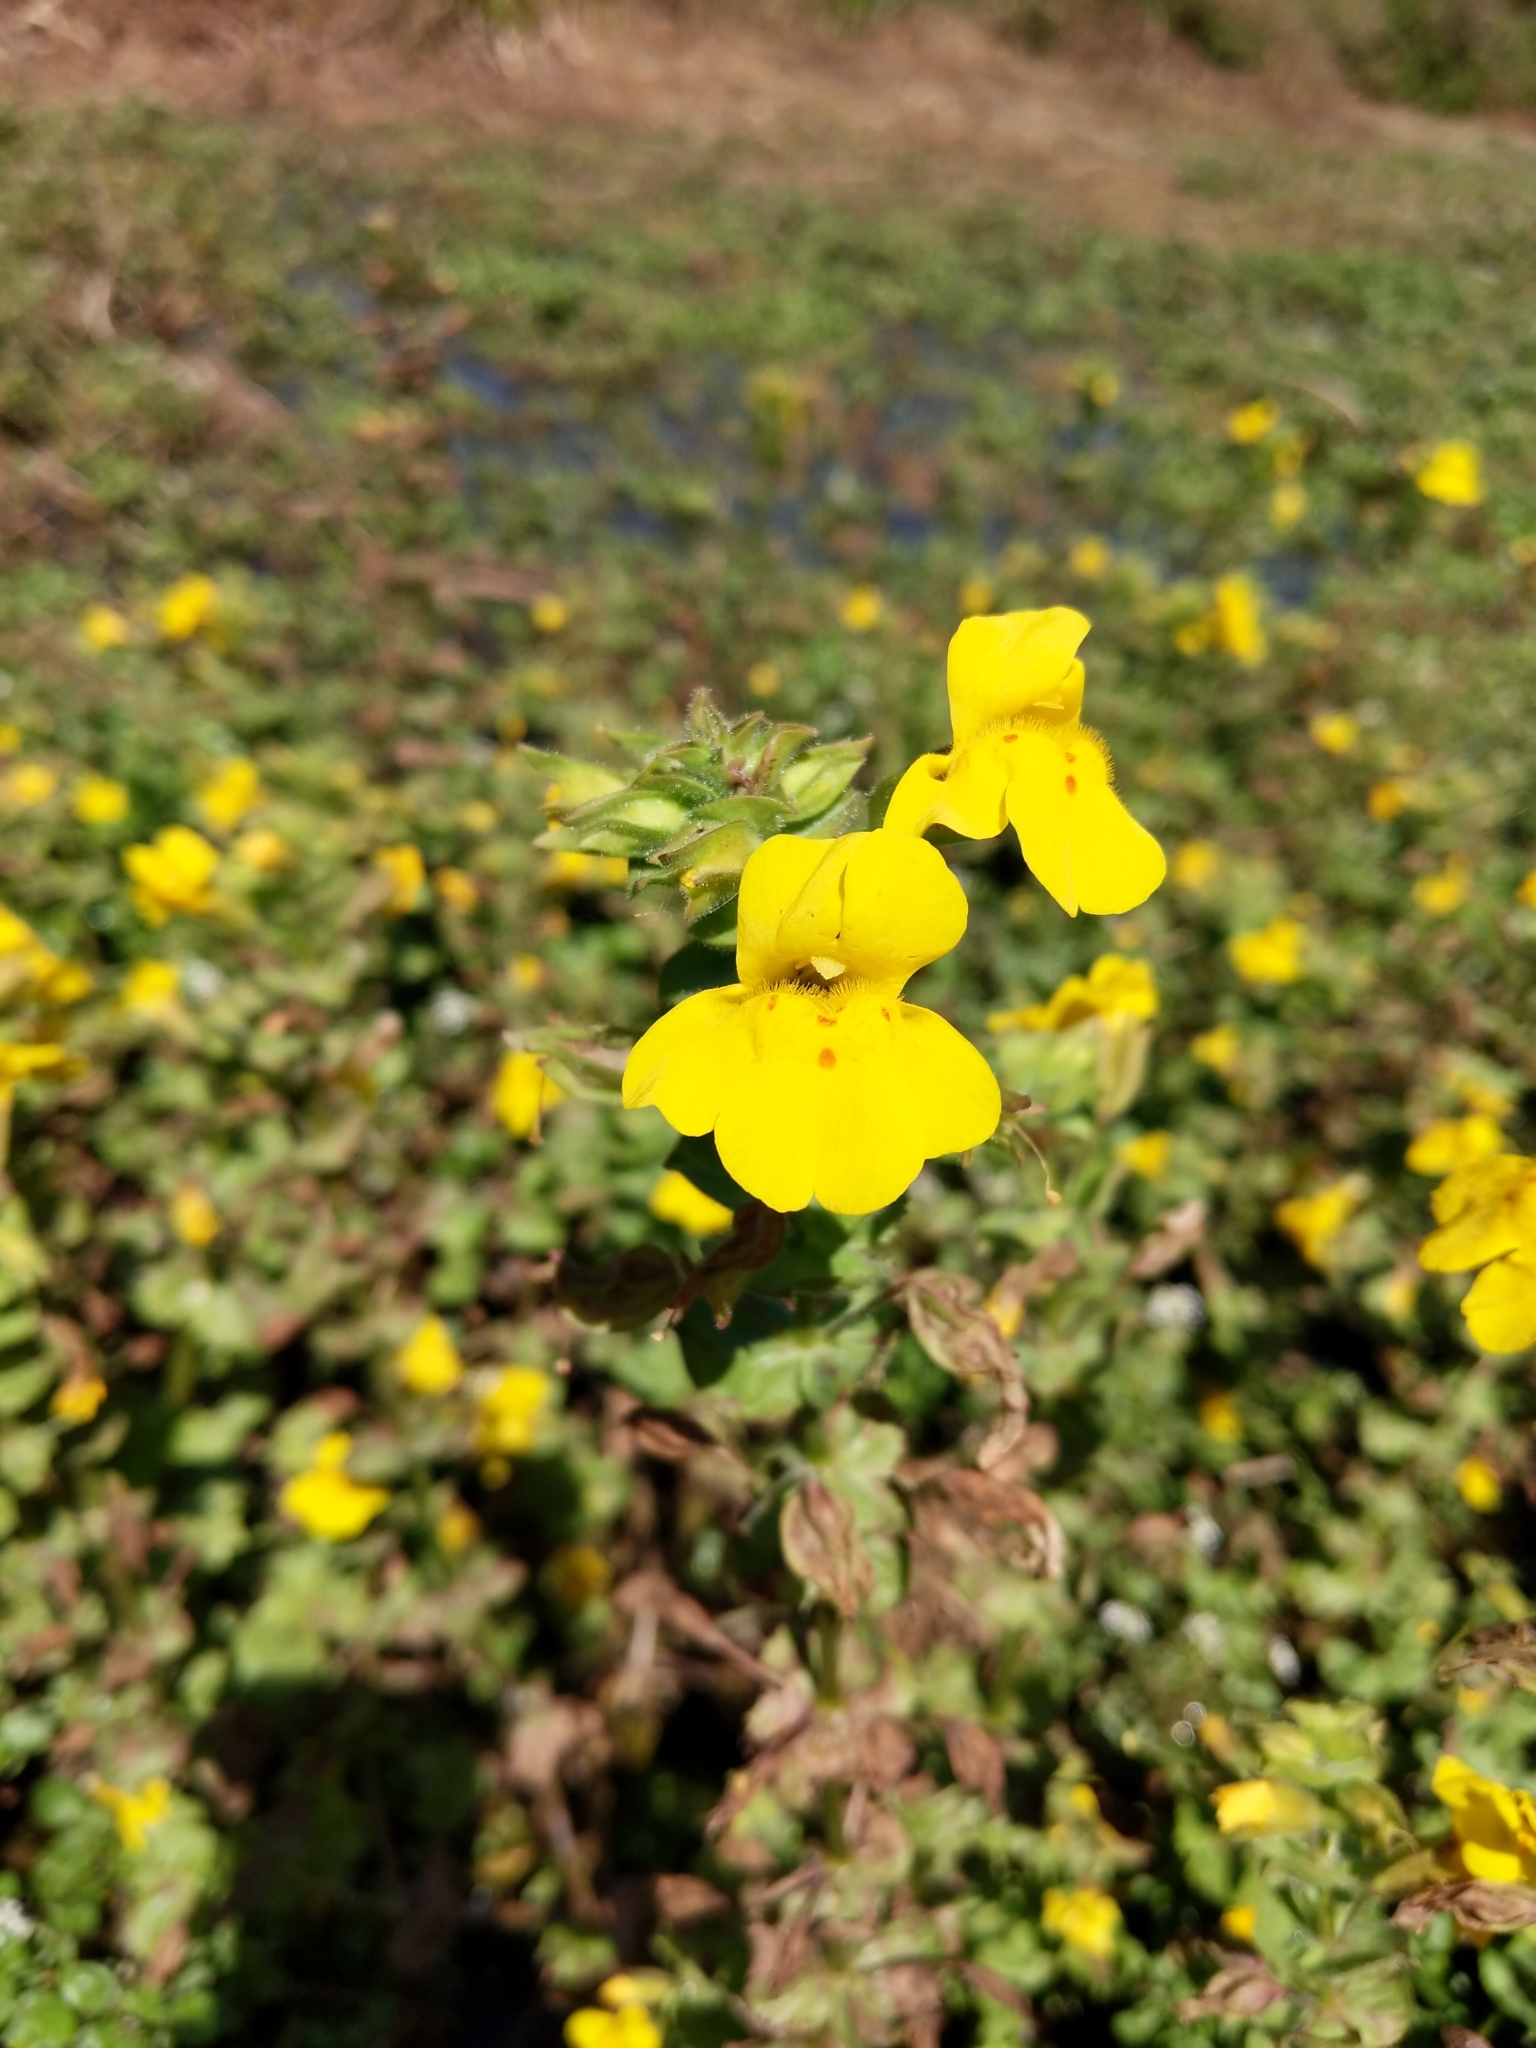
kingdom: Plantae
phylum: Tracheophyta
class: Magnoliopsida
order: Lamiales
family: Phrymaceae
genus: Erythranthe
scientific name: Erythranthe guttata
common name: Monkeyflower
